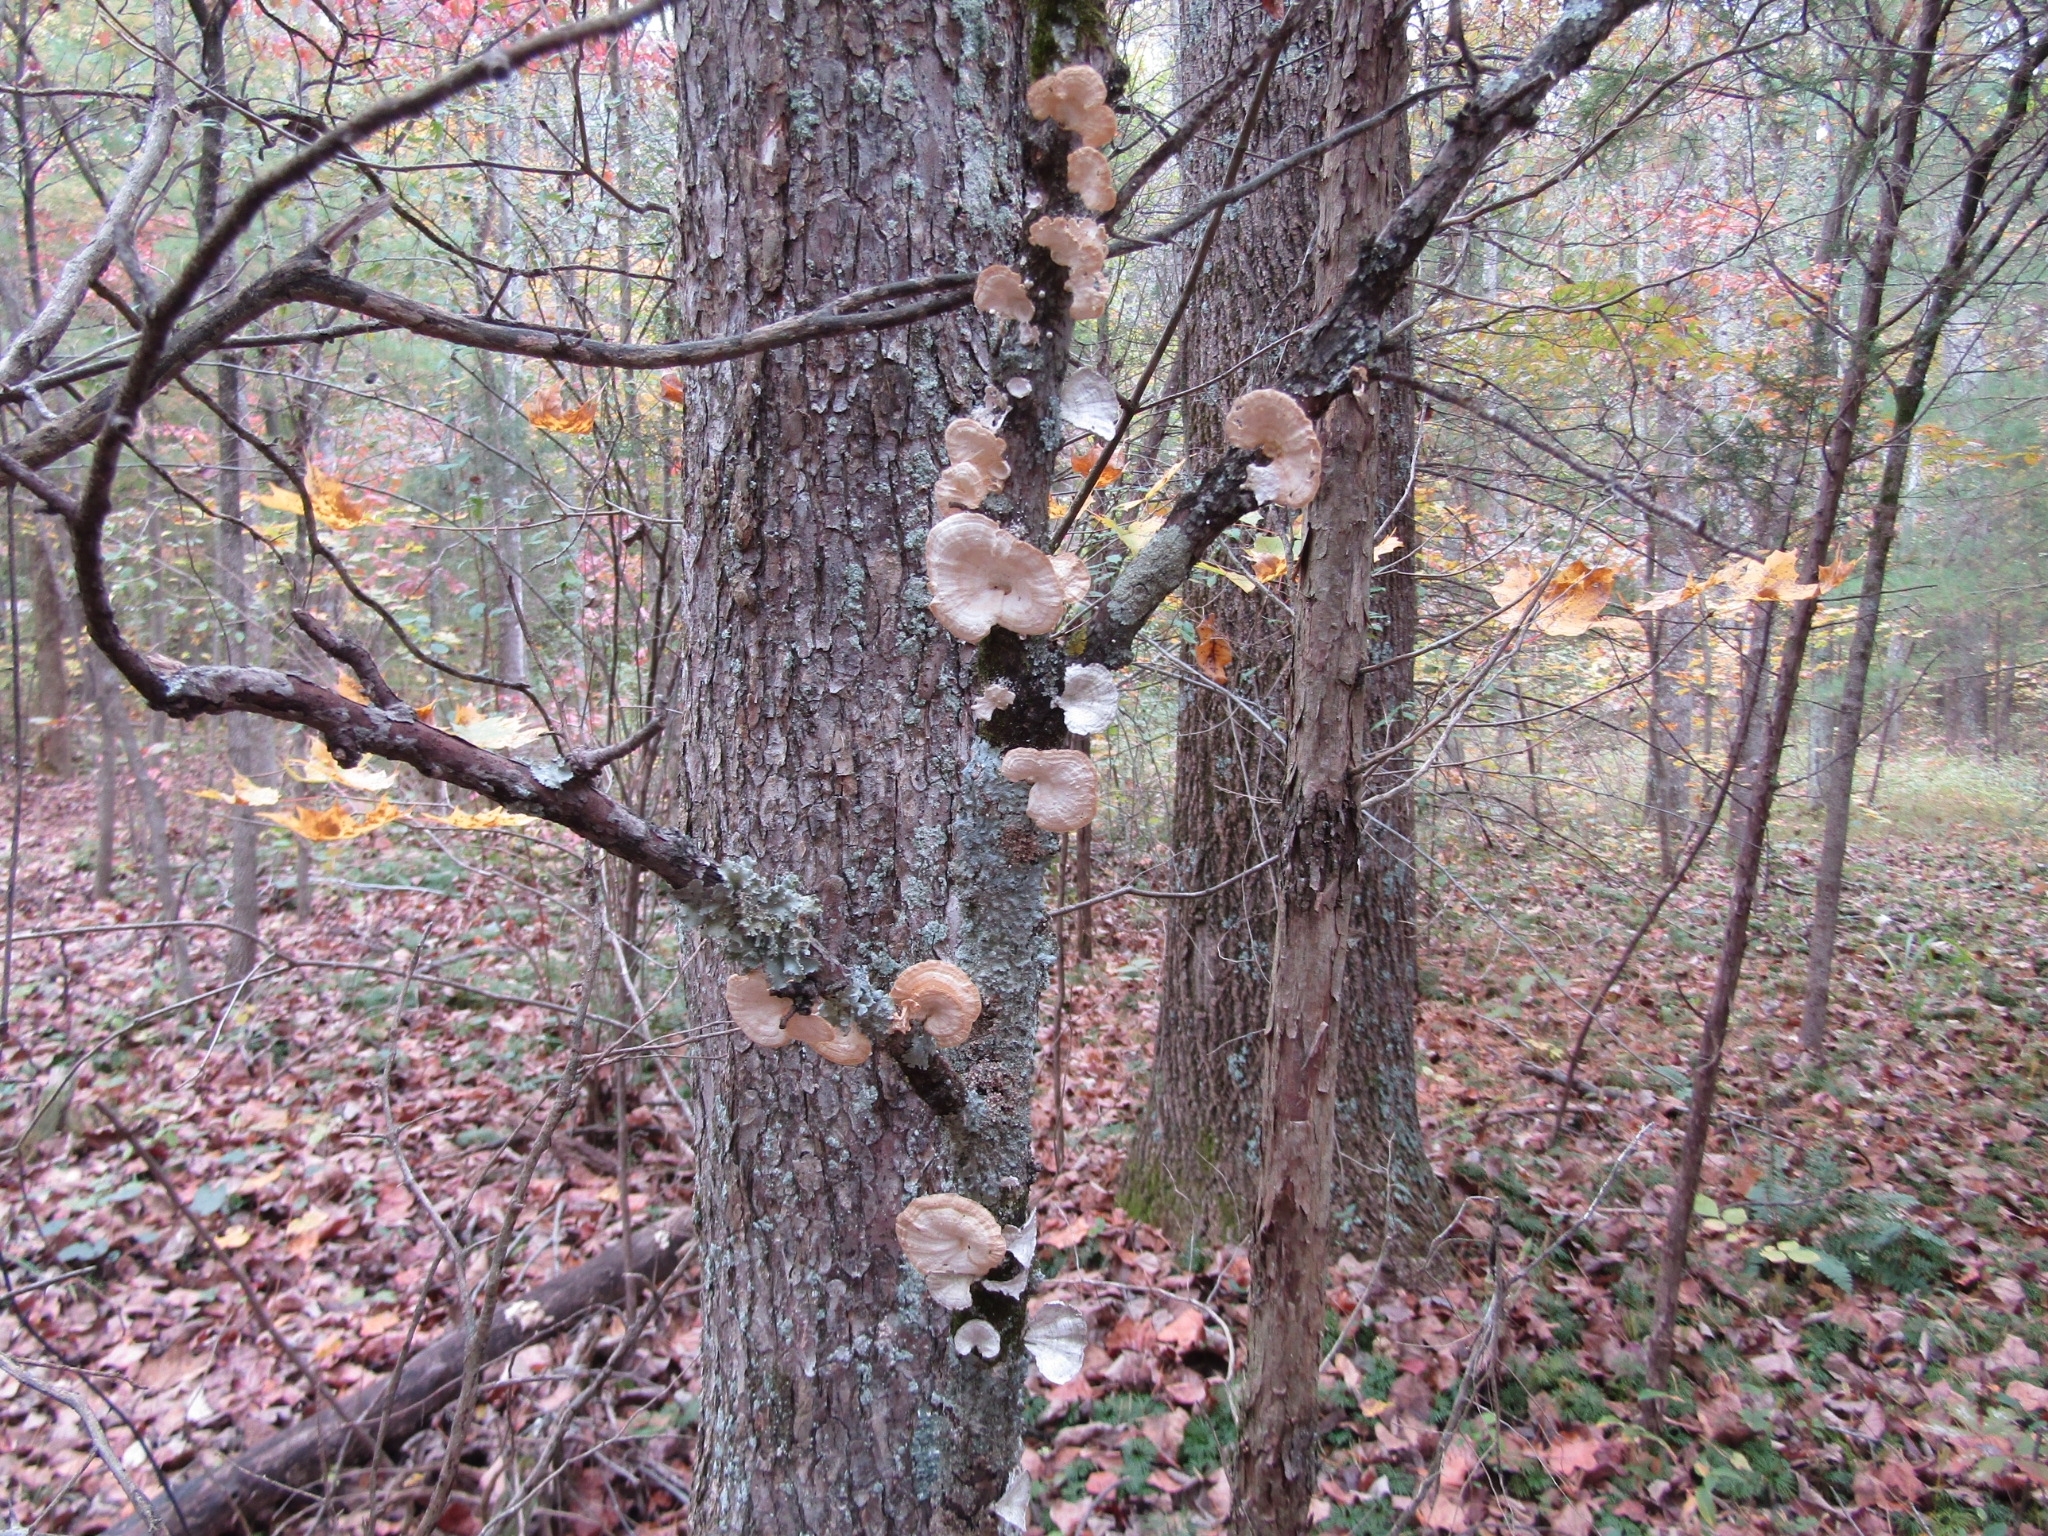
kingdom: Fungi
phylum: Basidiomycota
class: Agaricomycetes
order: Polyporales
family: Polyporaceae
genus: Poronidulus
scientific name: Poronidulus conchifer
